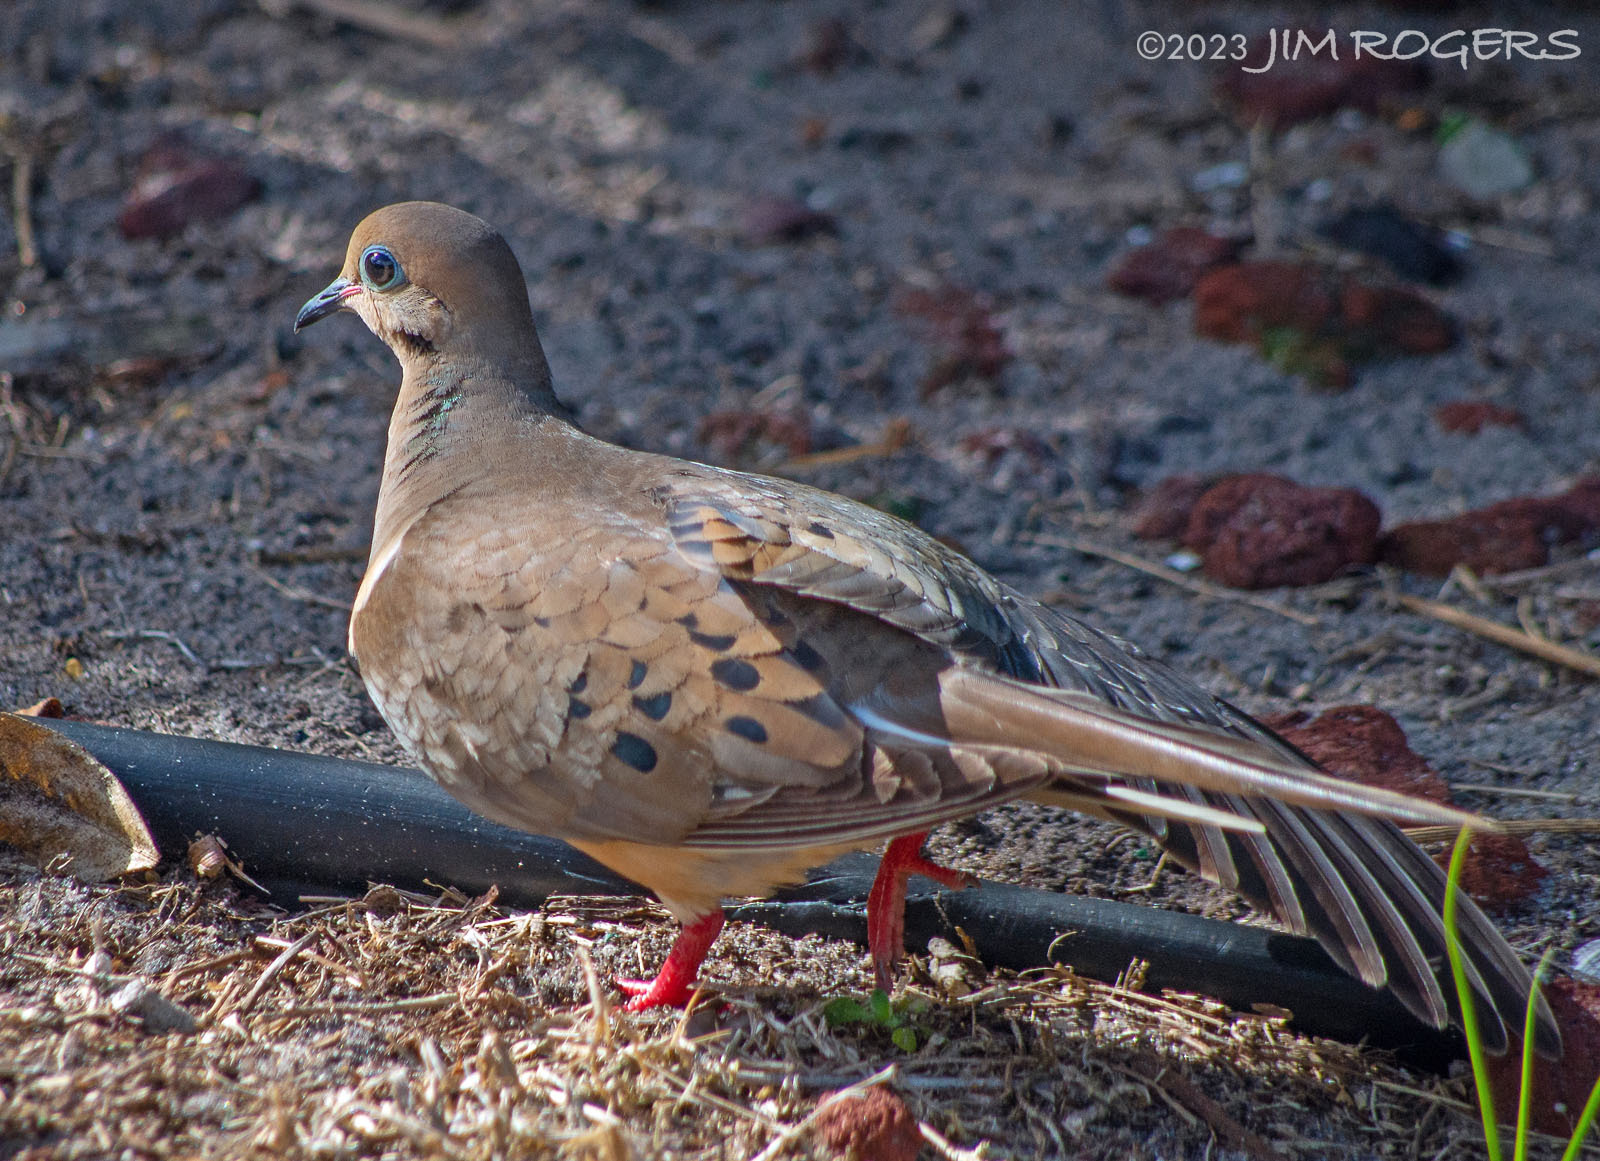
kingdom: Animalia
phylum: Chordata
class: Aves
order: Columbiformes
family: Columbidae
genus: Zenaida
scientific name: Zenaida macroura
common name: Mourning dove
